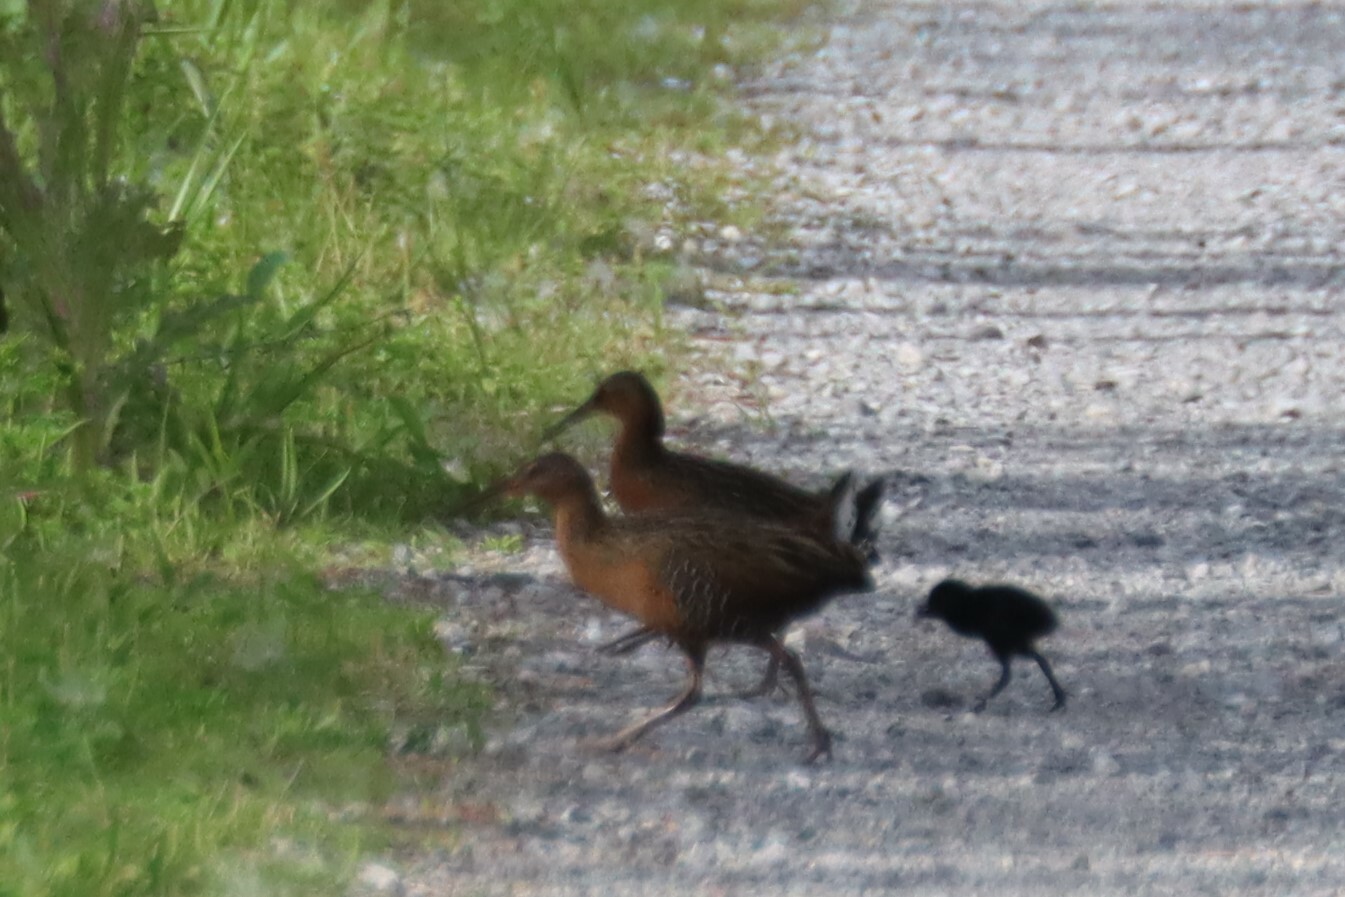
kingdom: Animalia
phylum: Chordata
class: Aves
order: Gruiformes
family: Rallidae
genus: Rallus
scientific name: Rallus elegans
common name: King rail
